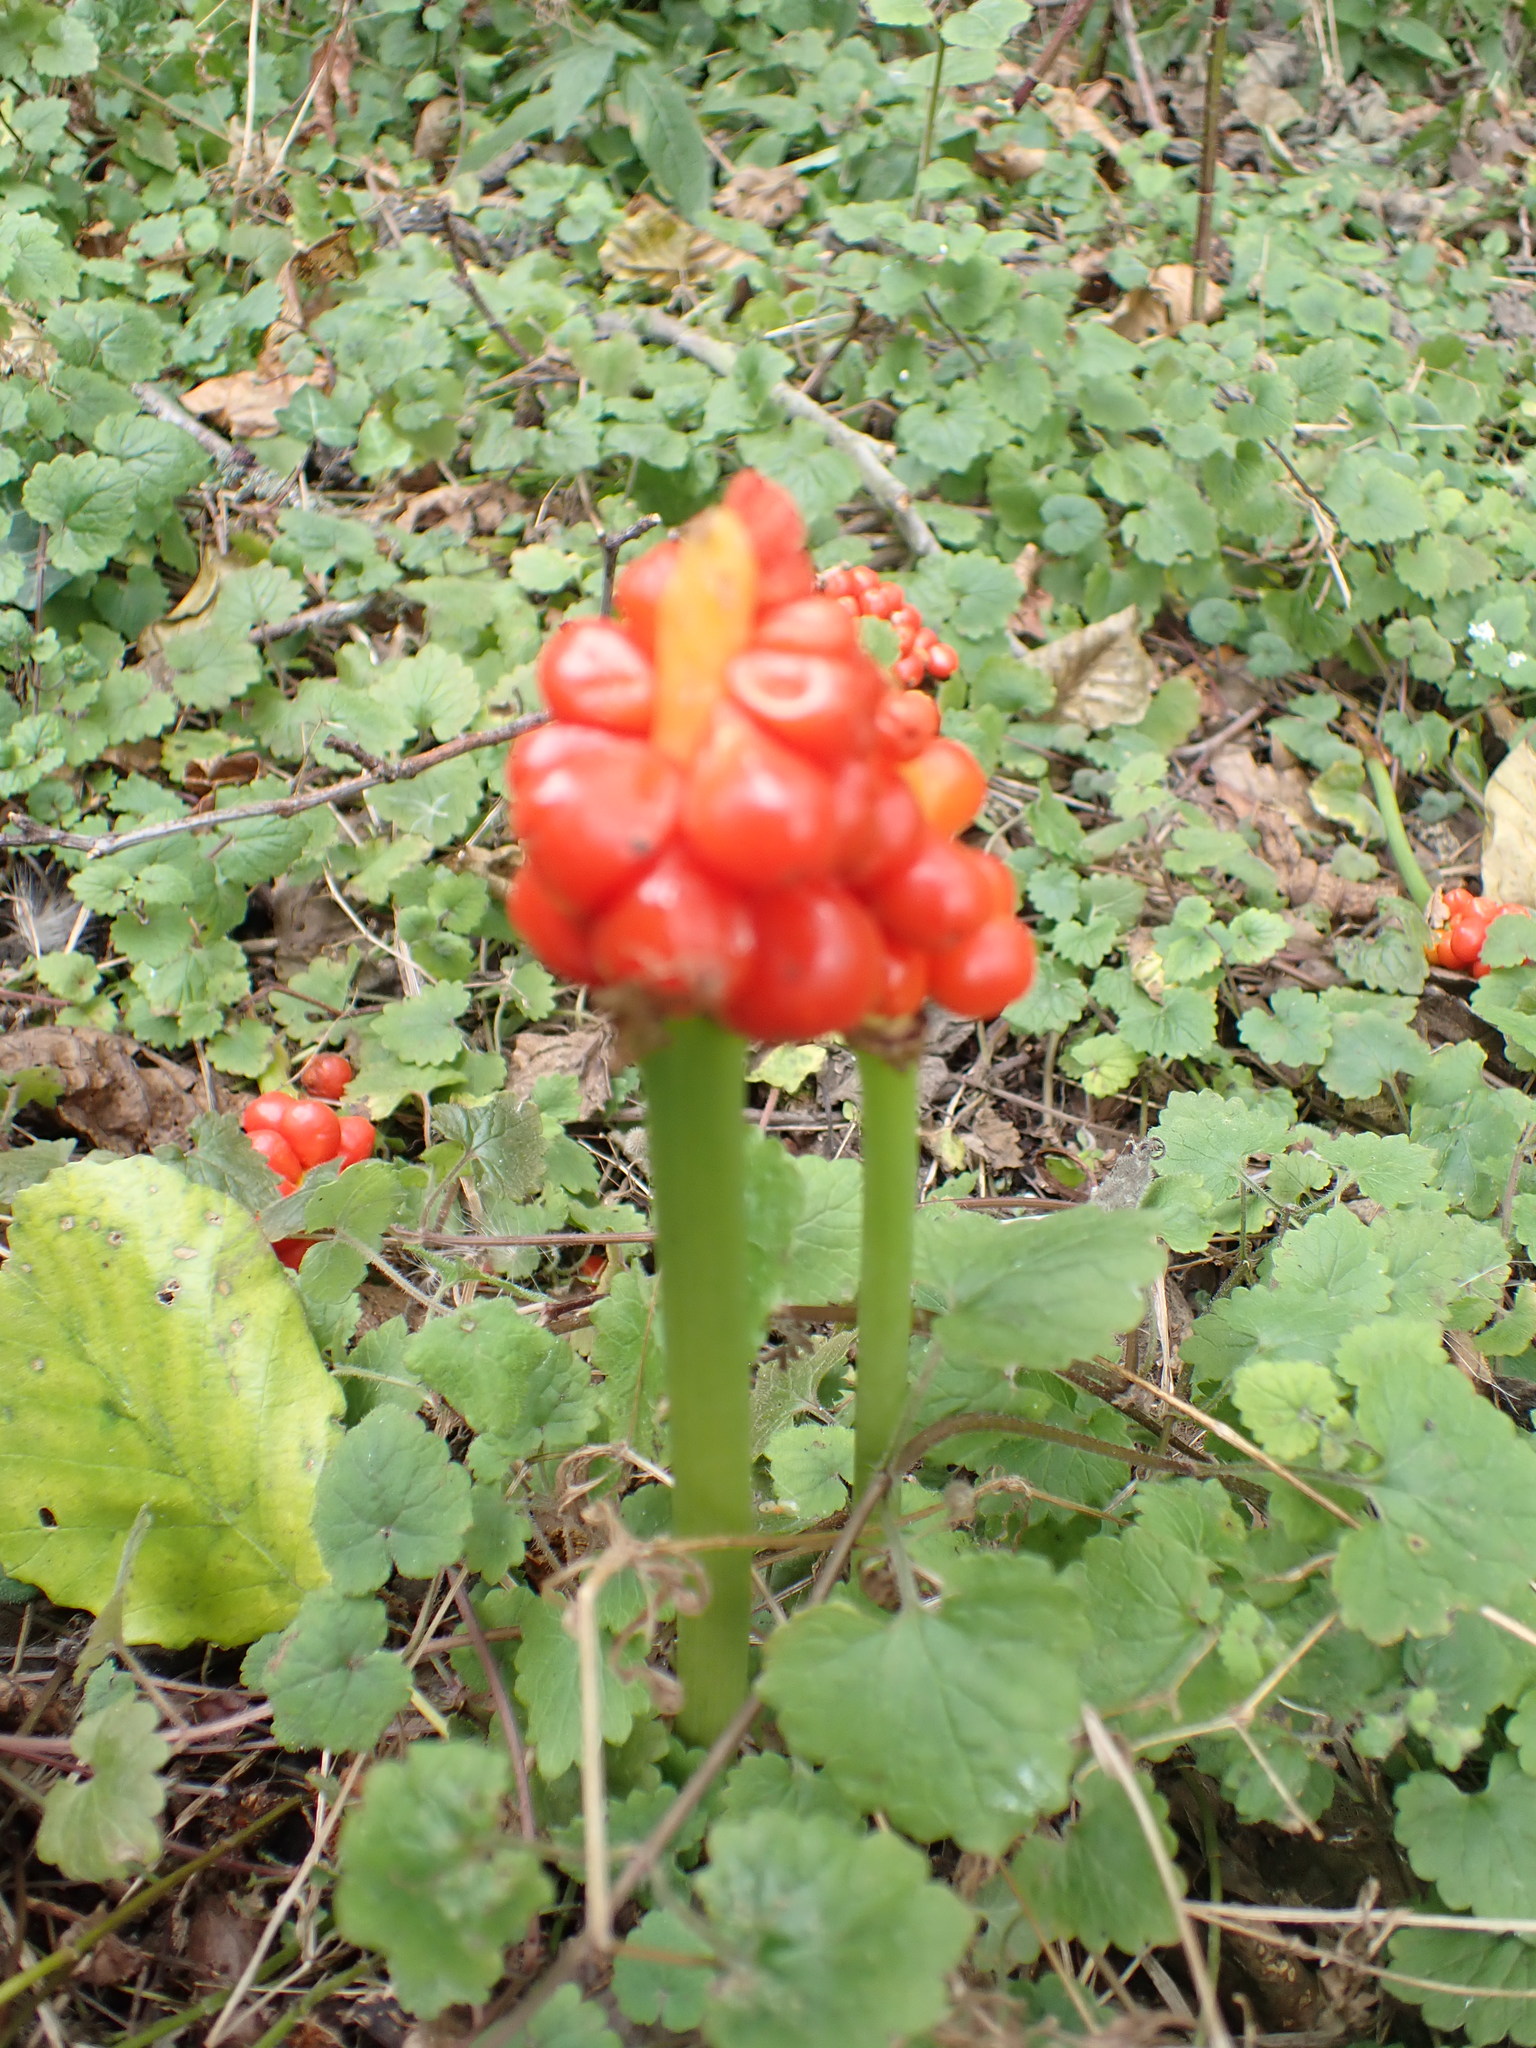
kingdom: Plantae
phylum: Tracheophyta
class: Liliopsida
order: Alismatales
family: Araceae
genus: Arum
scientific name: Arum maculatum
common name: Lords-and-ladies
